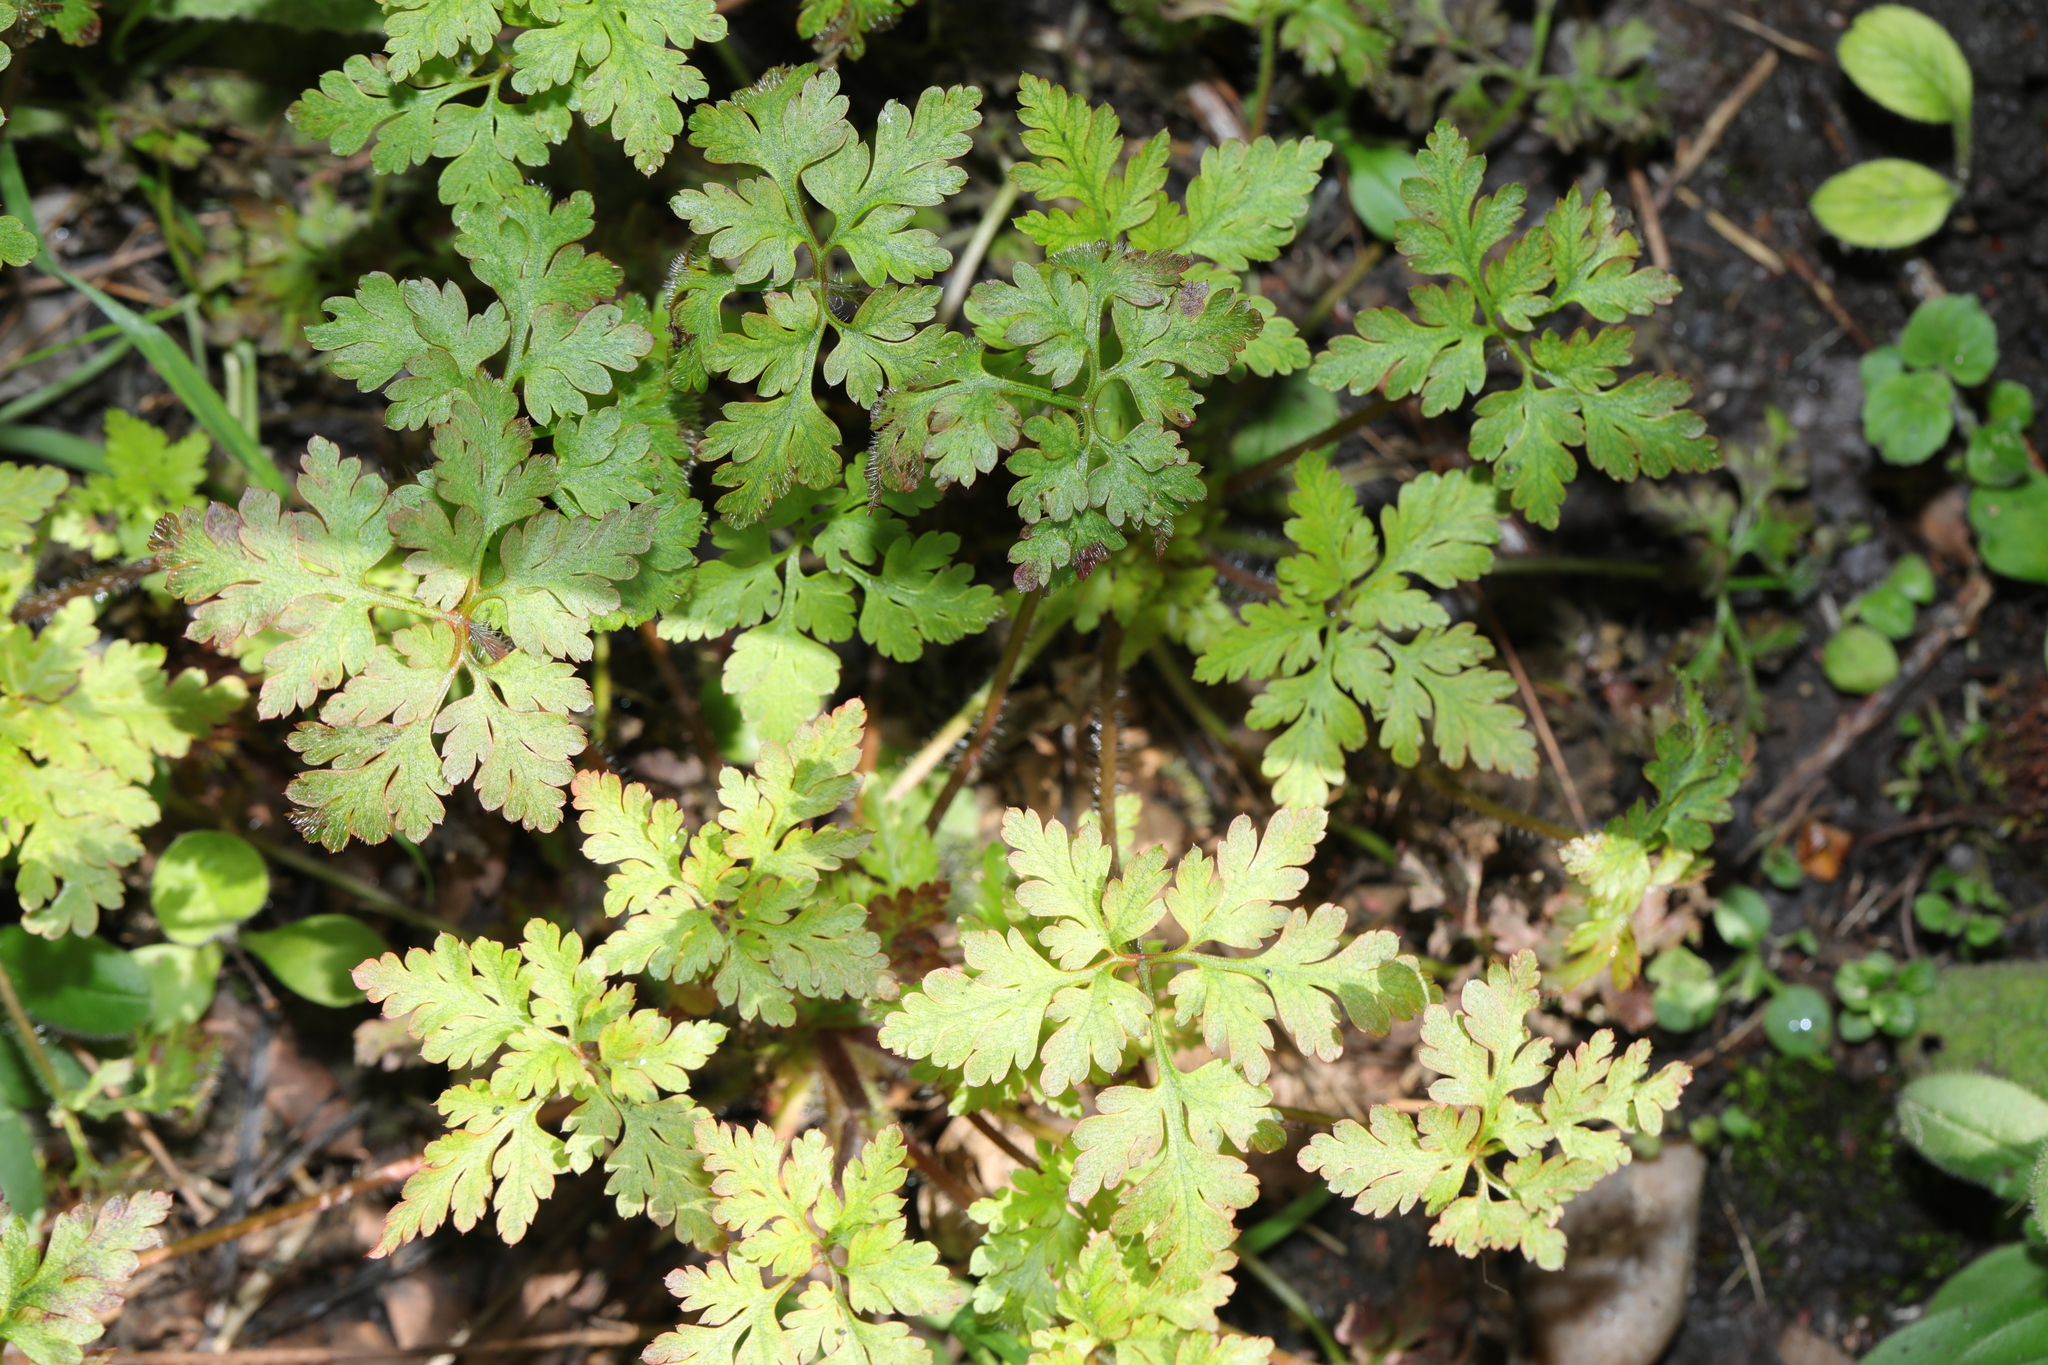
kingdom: Plantae
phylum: Tracheophyta
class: Magnoliopsida
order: Geraniales
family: Geraniaceae
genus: Geranium
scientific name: Geranium robertianum
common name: Herb-robert
